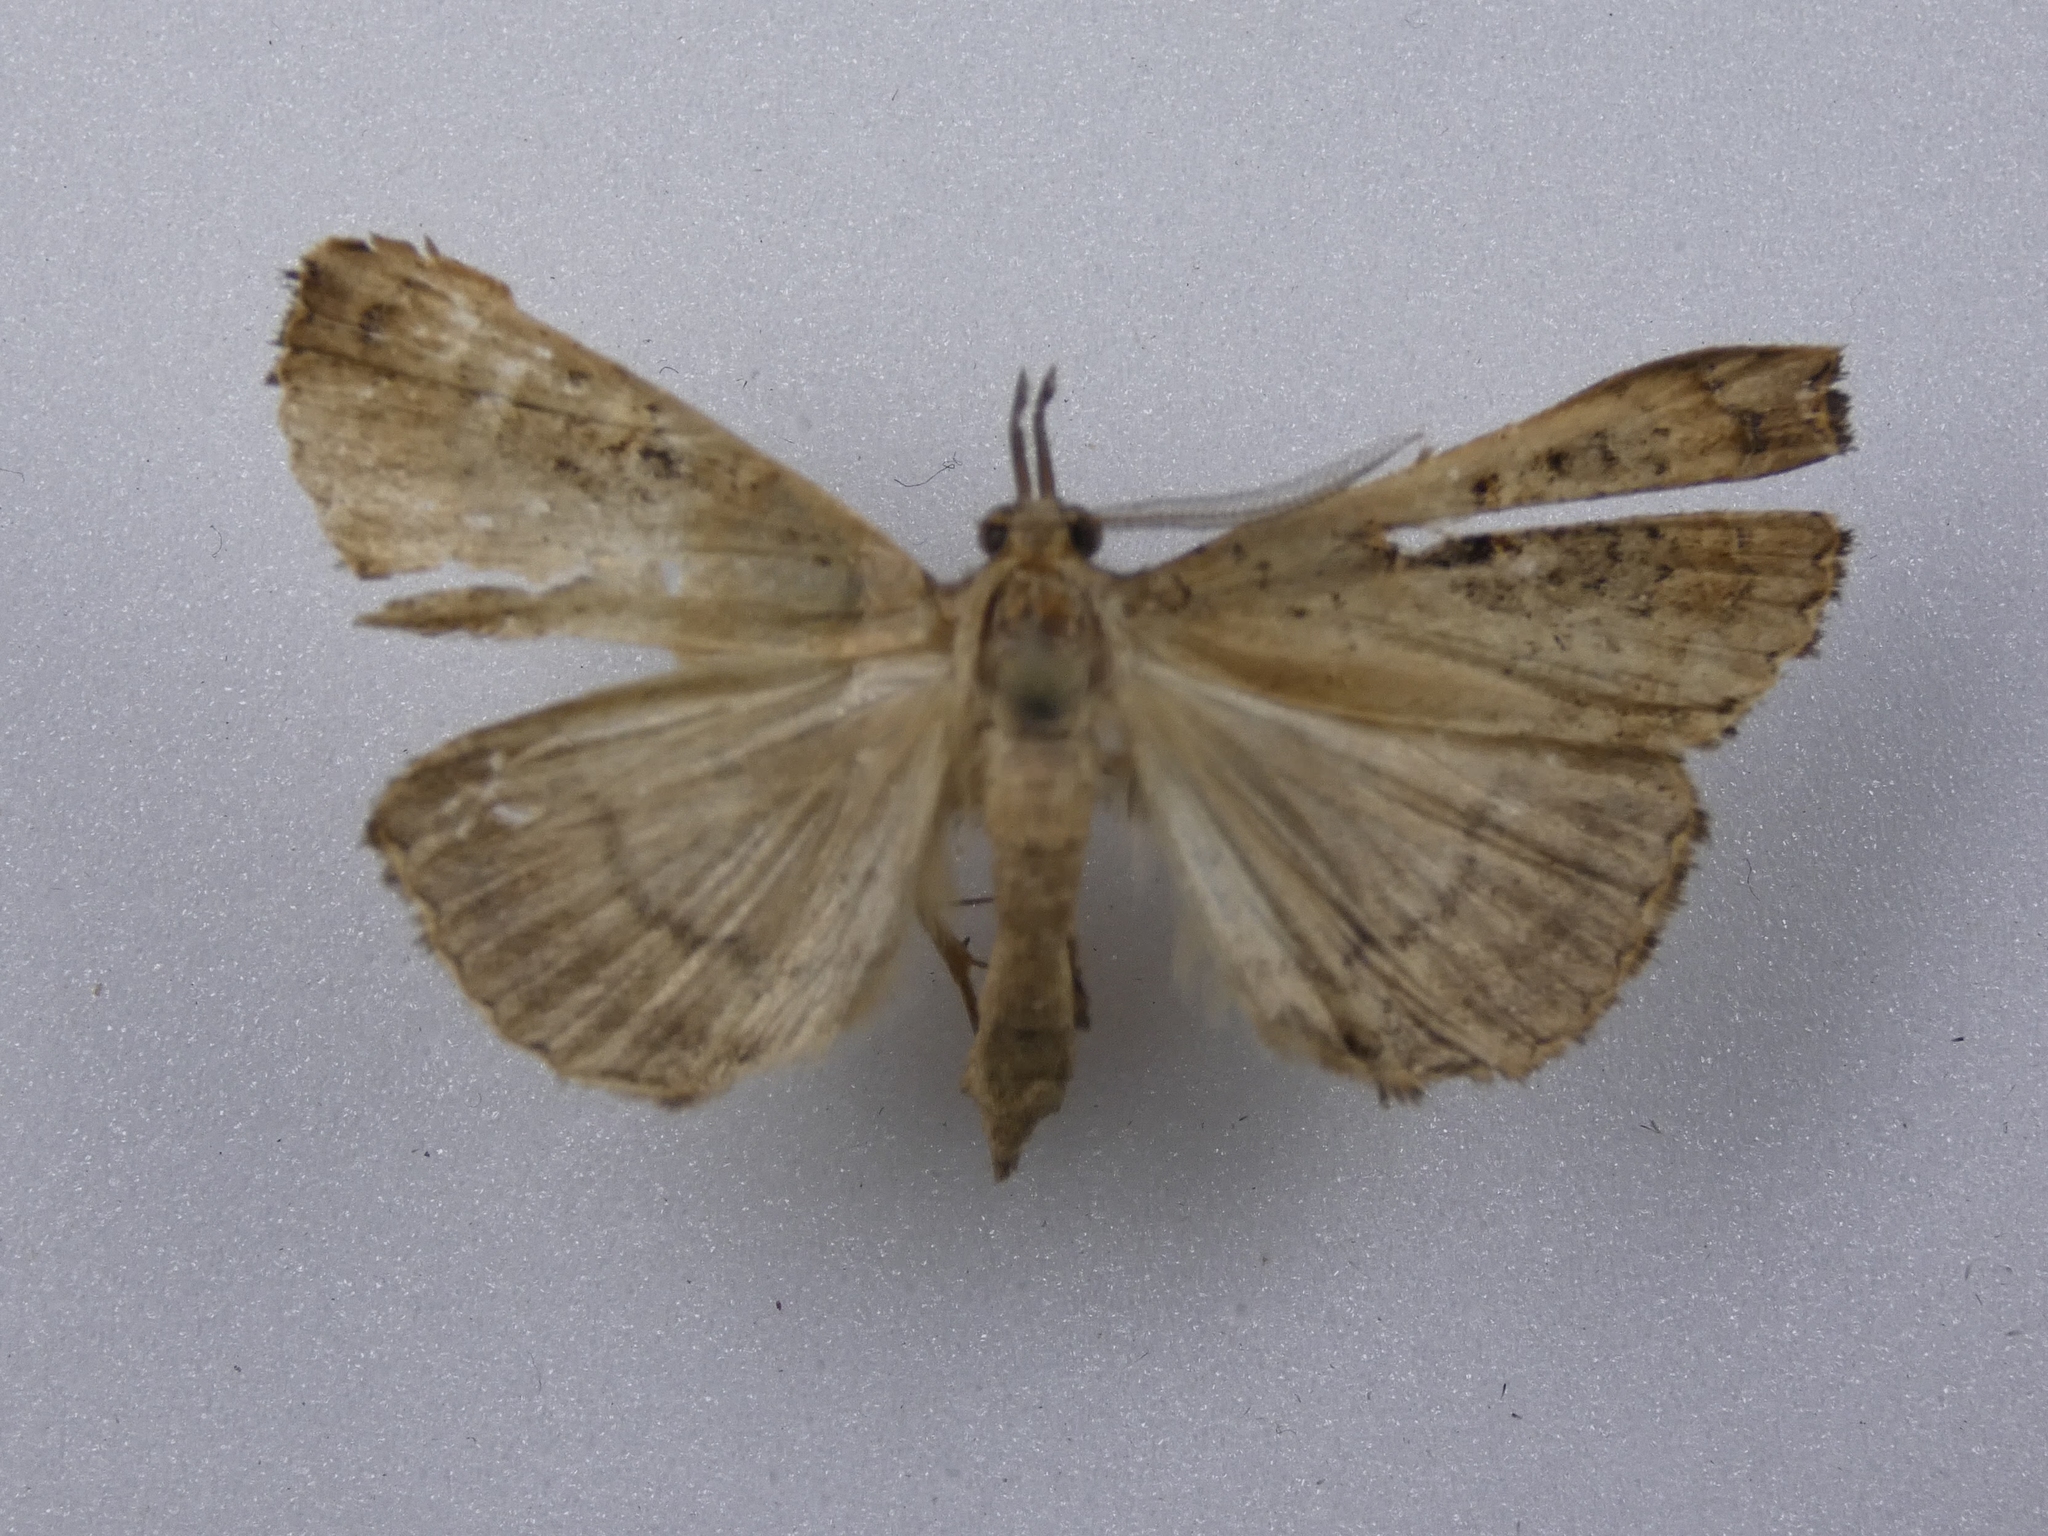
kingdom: Animalia
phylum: Arthropoda
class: Insecta
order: Lepidoptera
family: Erebidae
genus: Rhapsa
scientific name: Rhapsa scotosialis
